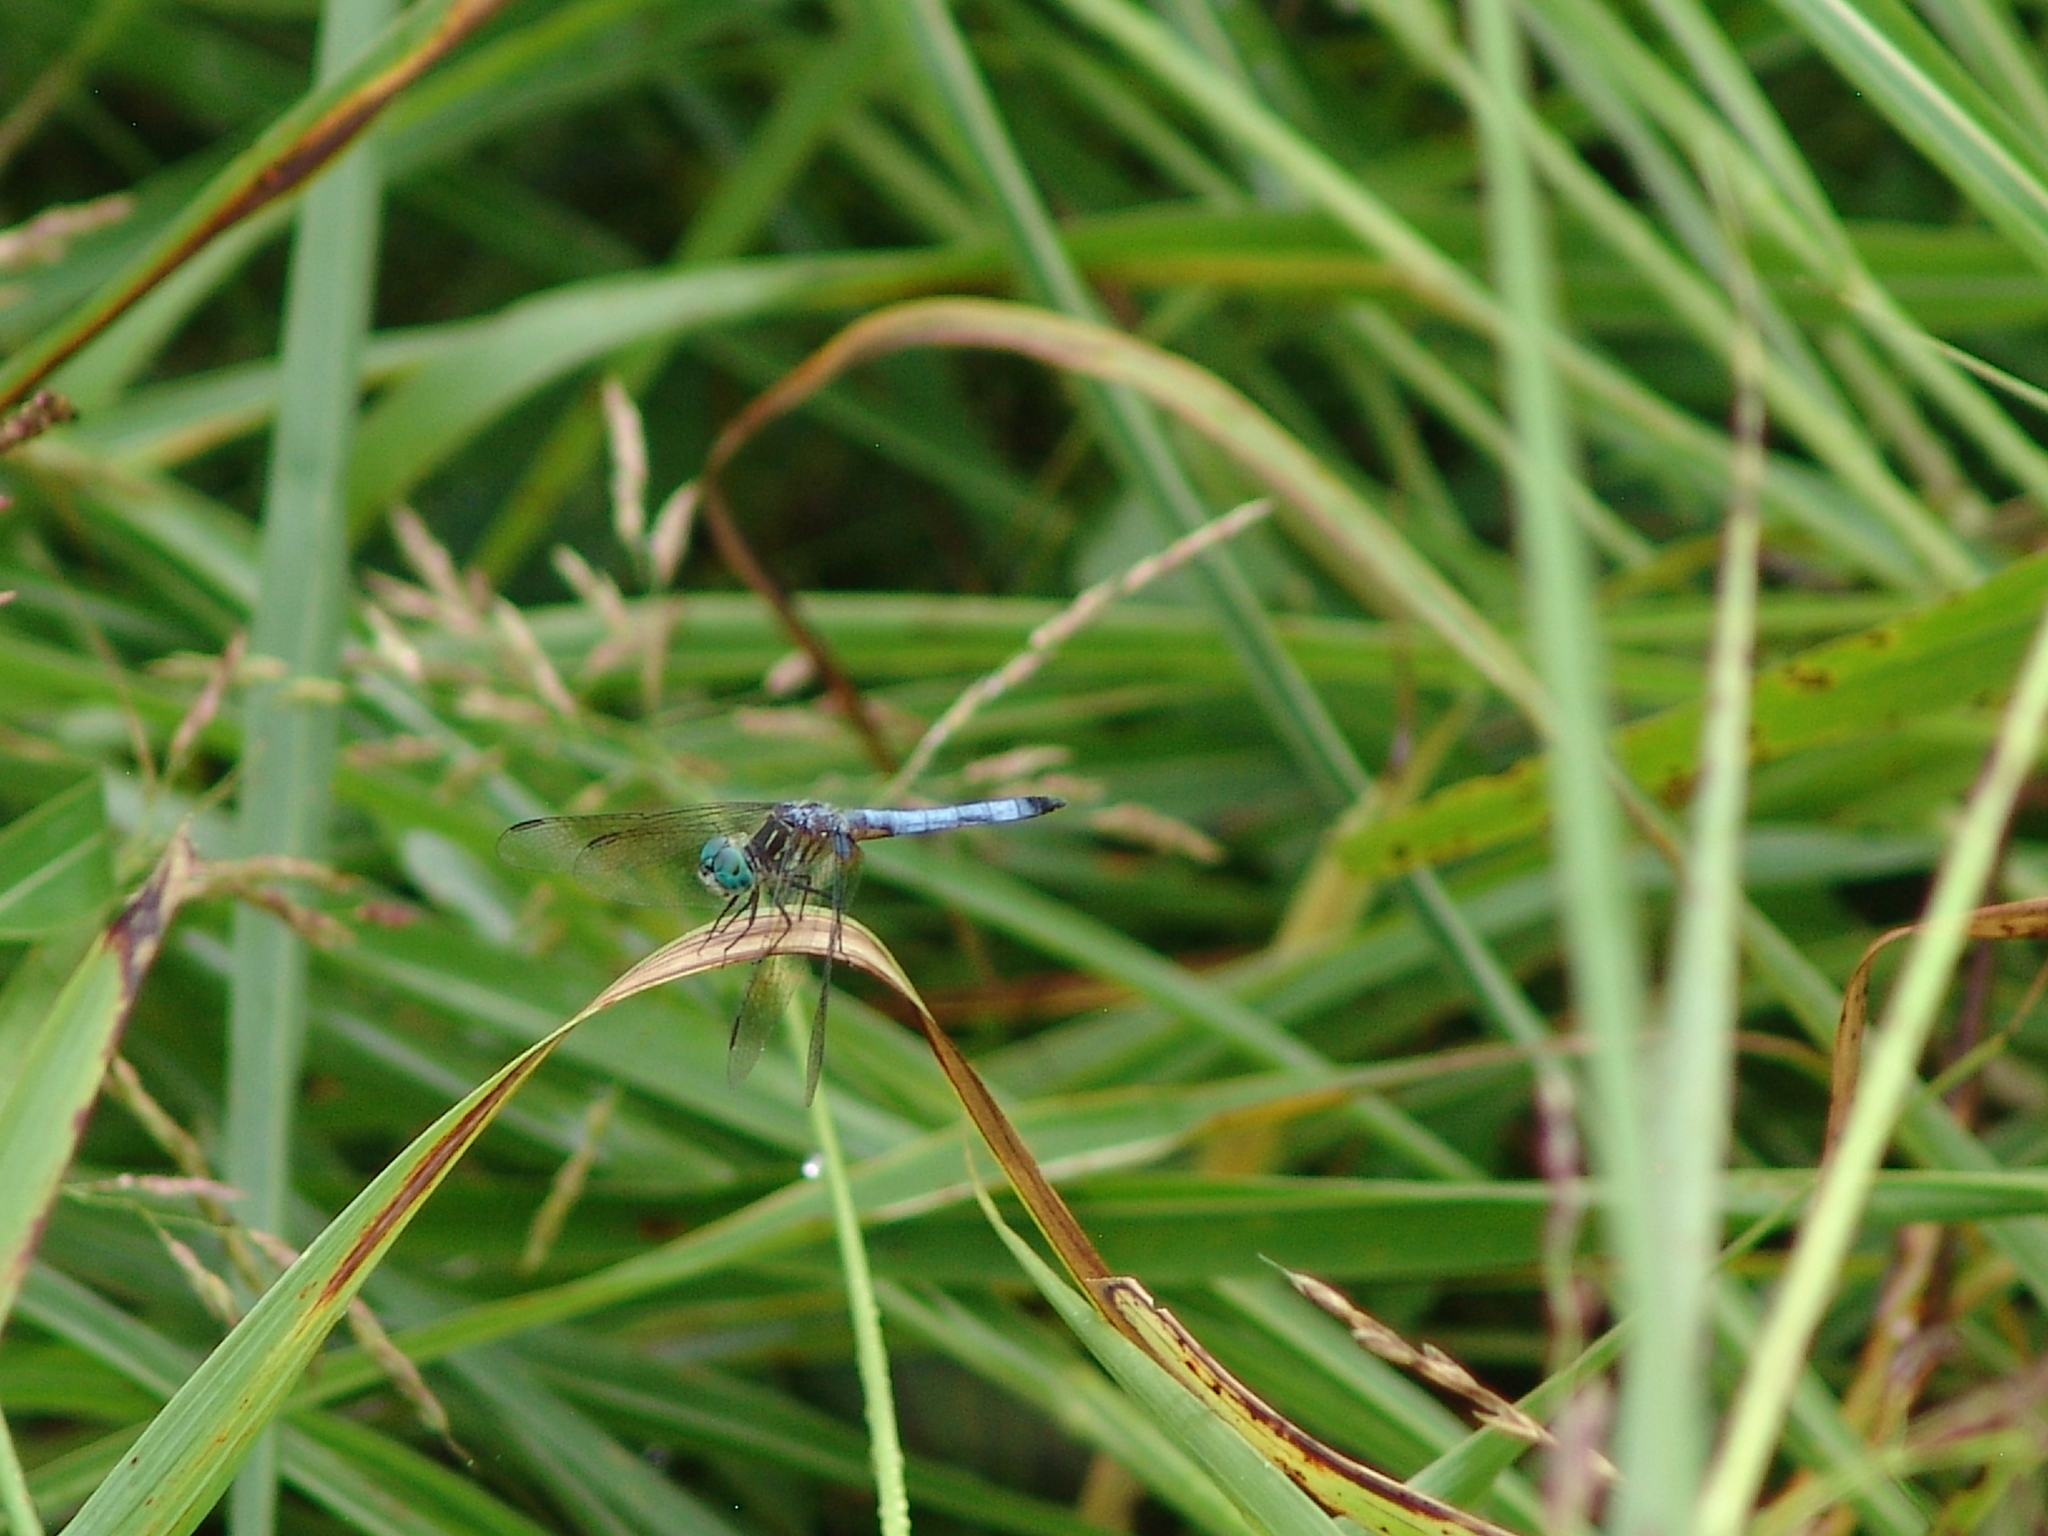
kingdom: Animalia
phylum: Arthropoda
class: Insecta
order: Odonata
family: Libellulidae
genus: Pachydiplax
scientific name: Pachydiplax longipennis
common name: Blue dasher
